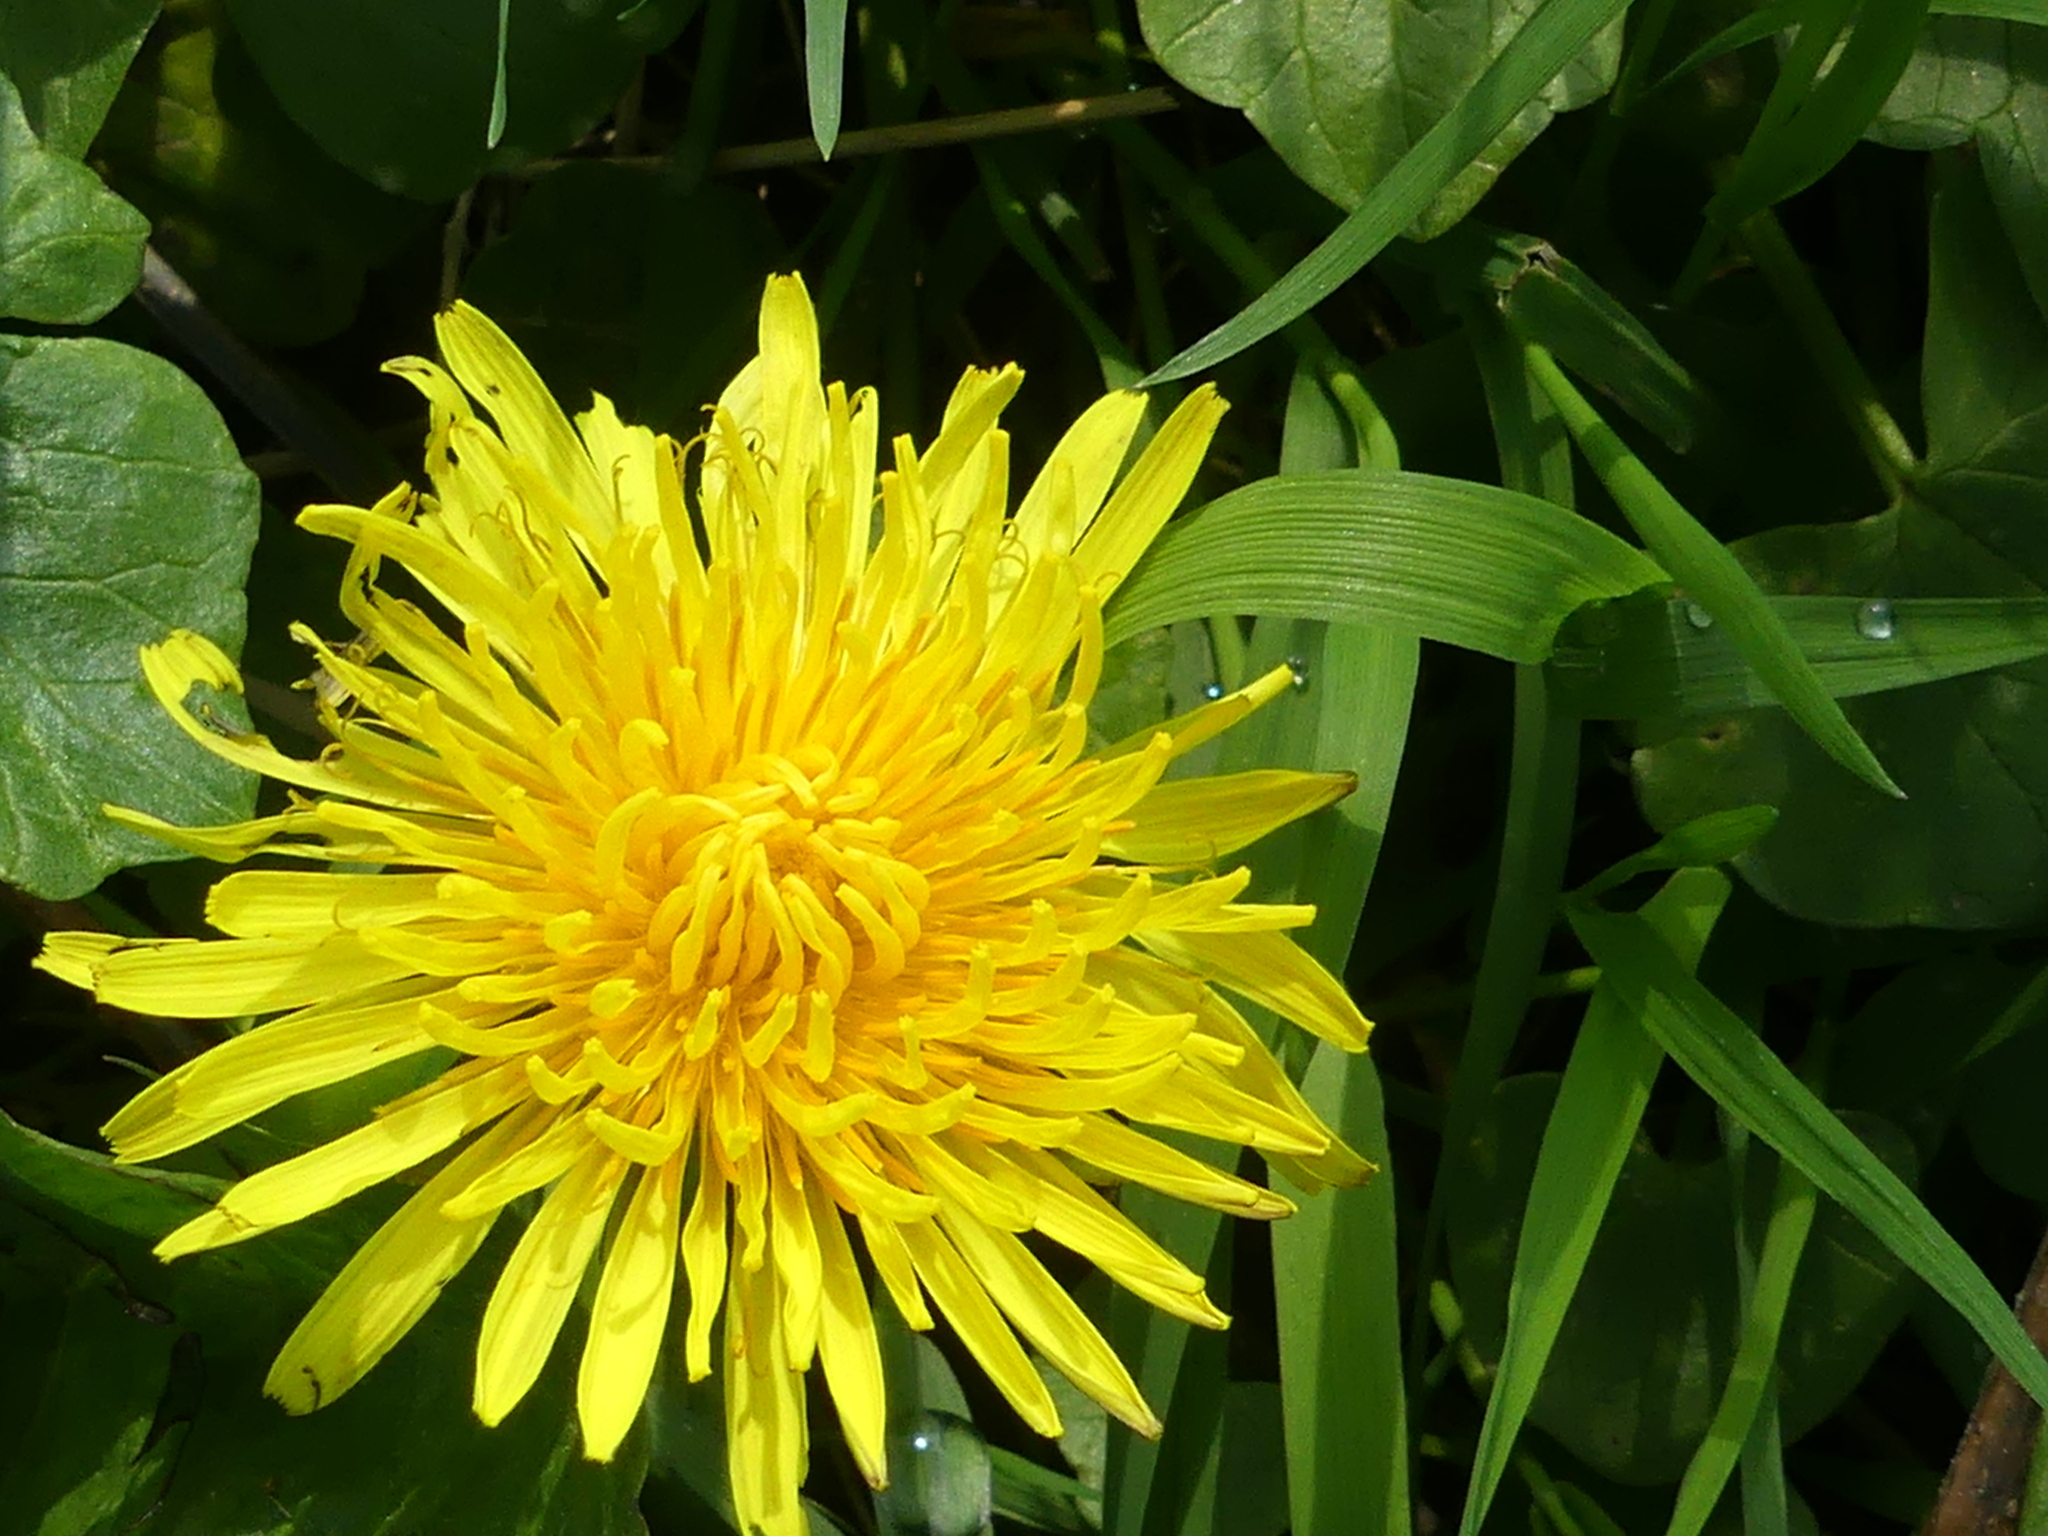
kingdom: Plantae
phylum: Tracheophyta
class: Magnoliopsida
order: Asterales
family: Asteraceae
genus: Taraxacum
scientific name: Taraxacum officinale
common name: Common dandelion
